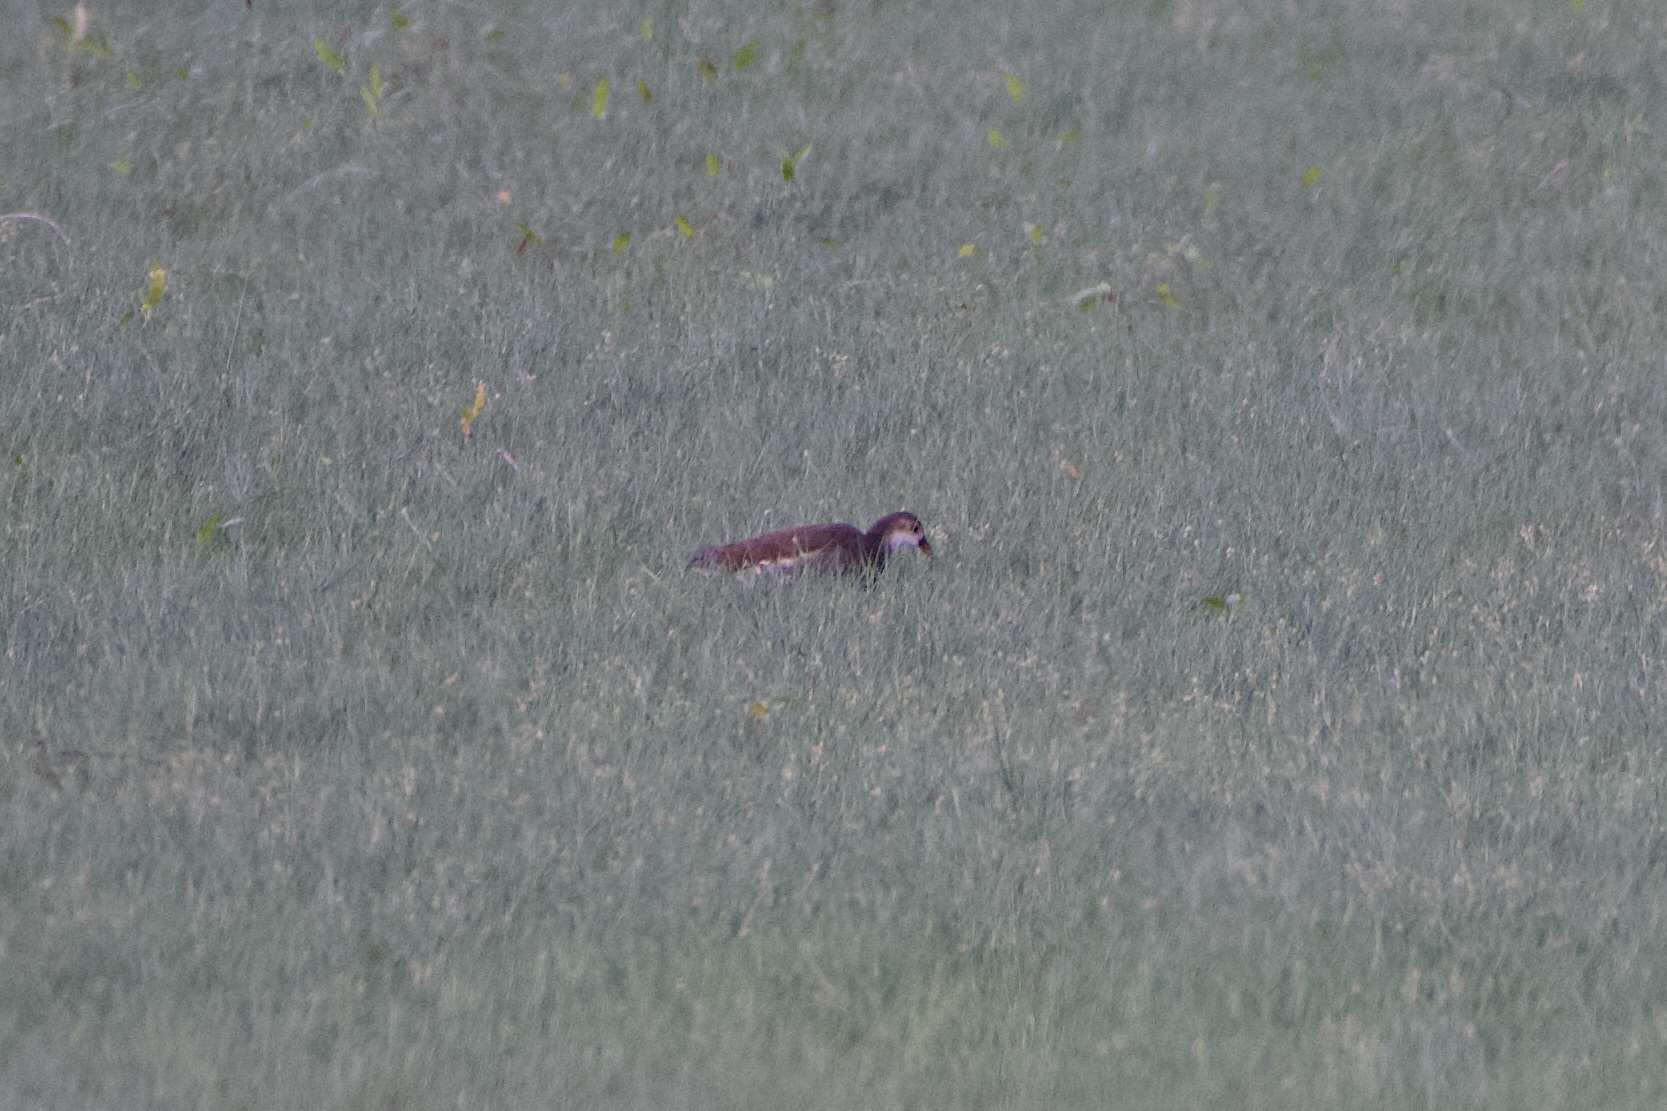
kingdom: Animalia
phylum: Chordata
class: Aves
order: Gruiformes
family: Rallidae
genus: Gallinula
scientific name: Gallinula chloropus
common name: Common moorhen
